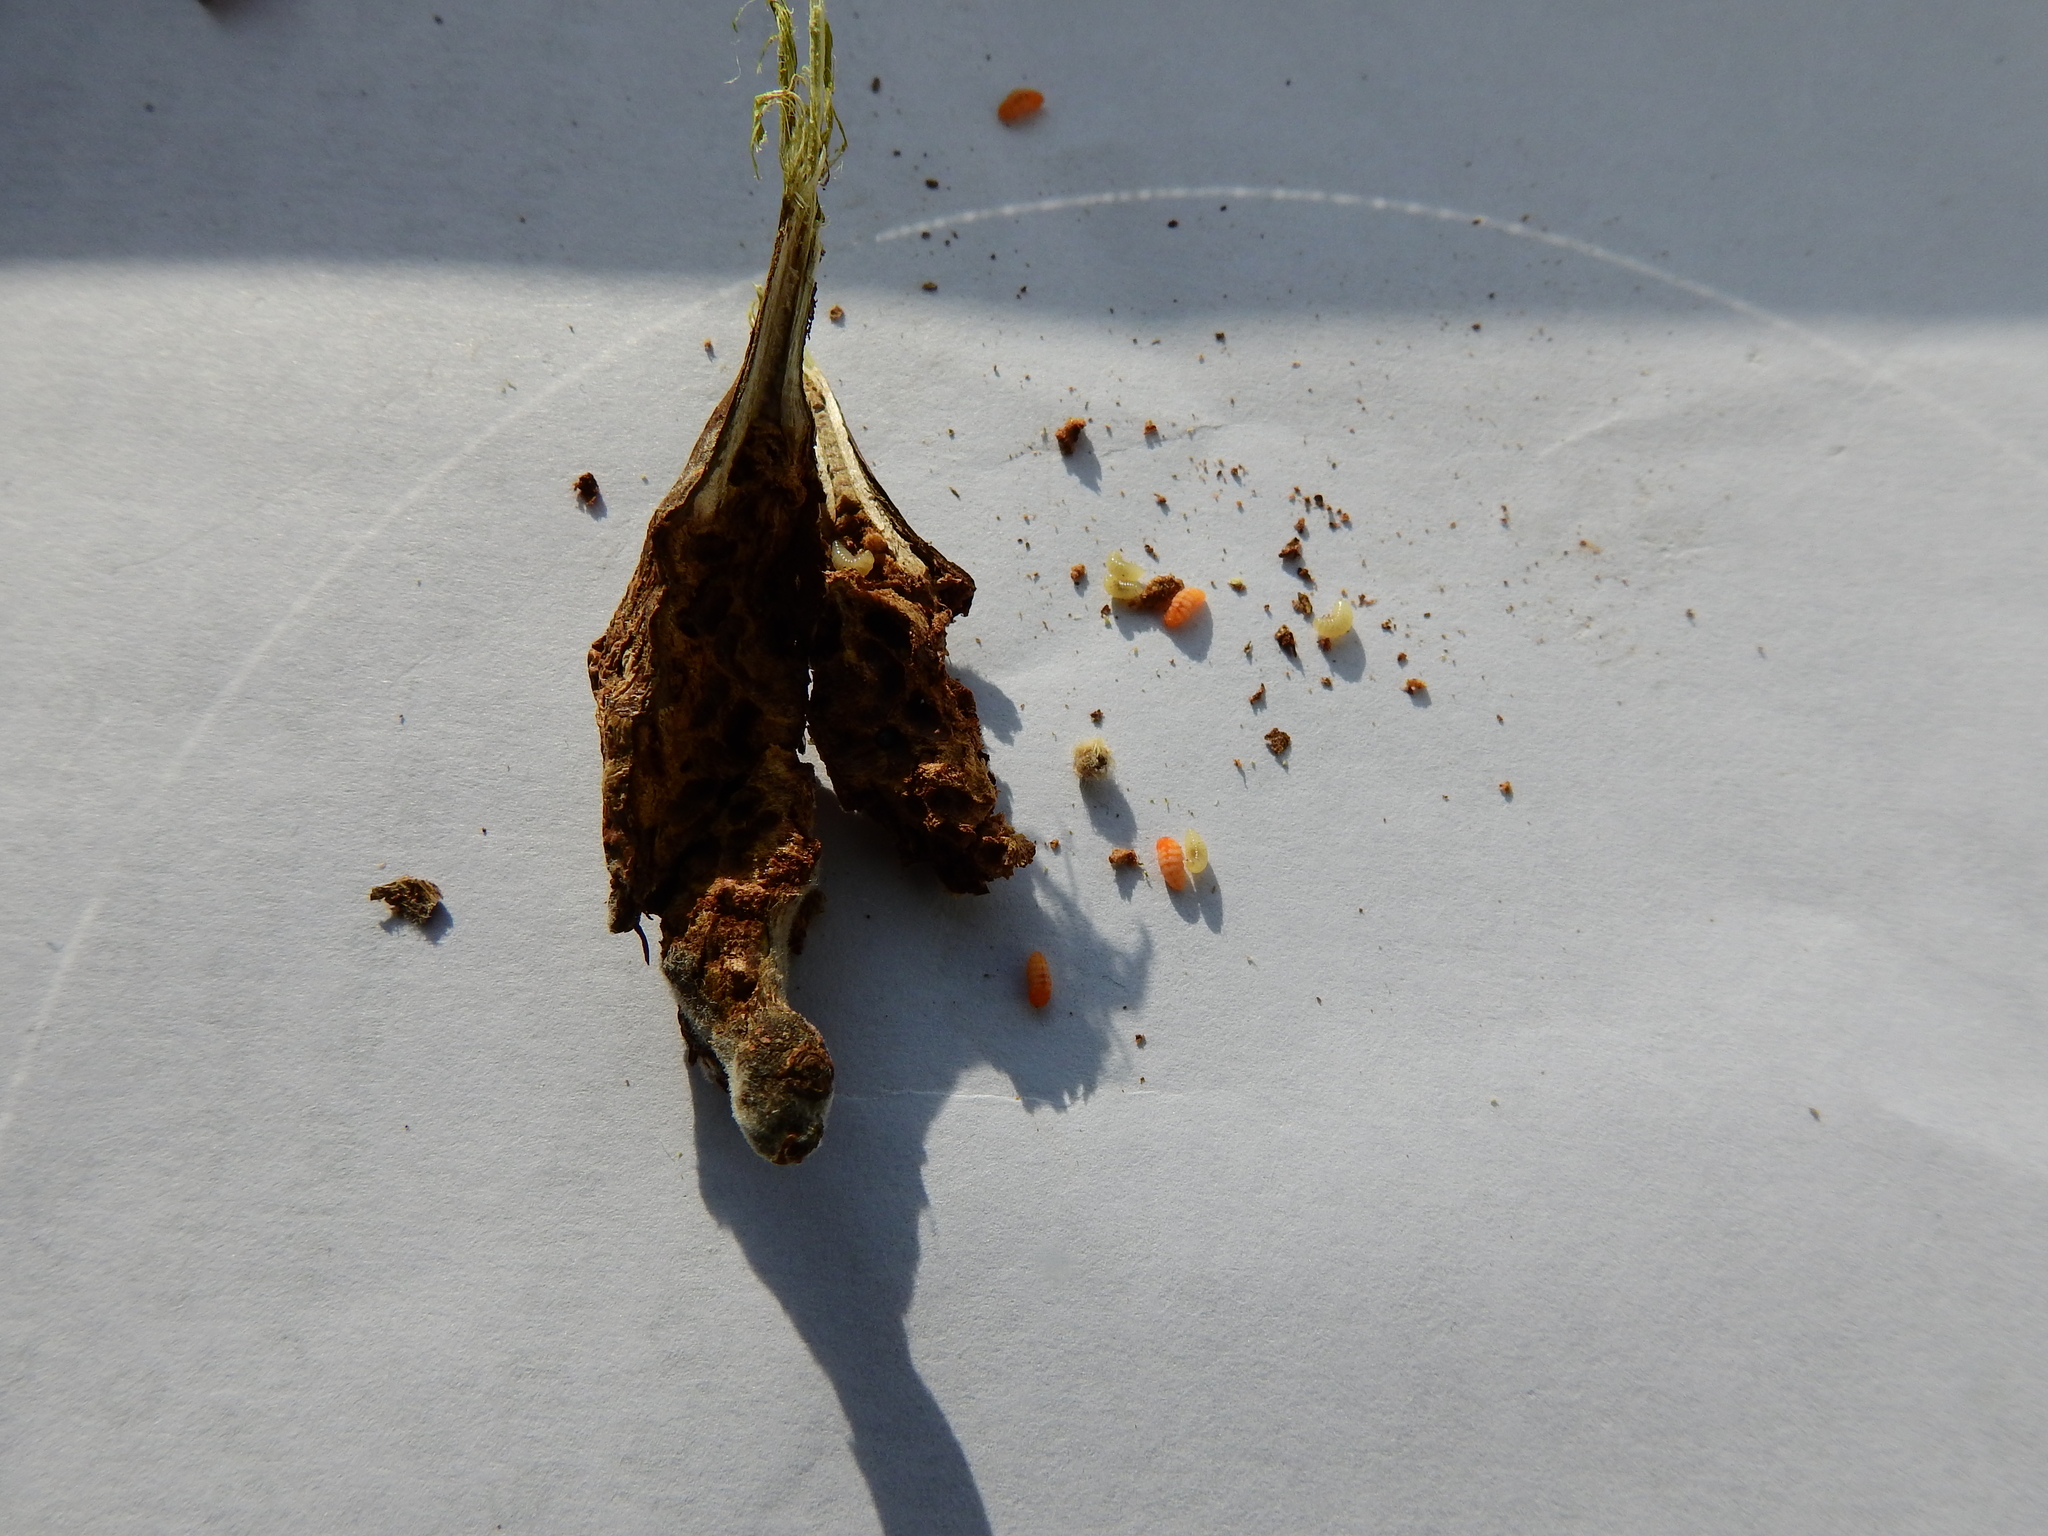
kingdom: Animalia
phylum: Arthropoda
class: Insecta
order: Diptera
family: Cecidomyiidae
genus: Rabdophaga
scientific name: Rabdophaga salicis
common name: Willow twig gall midge
